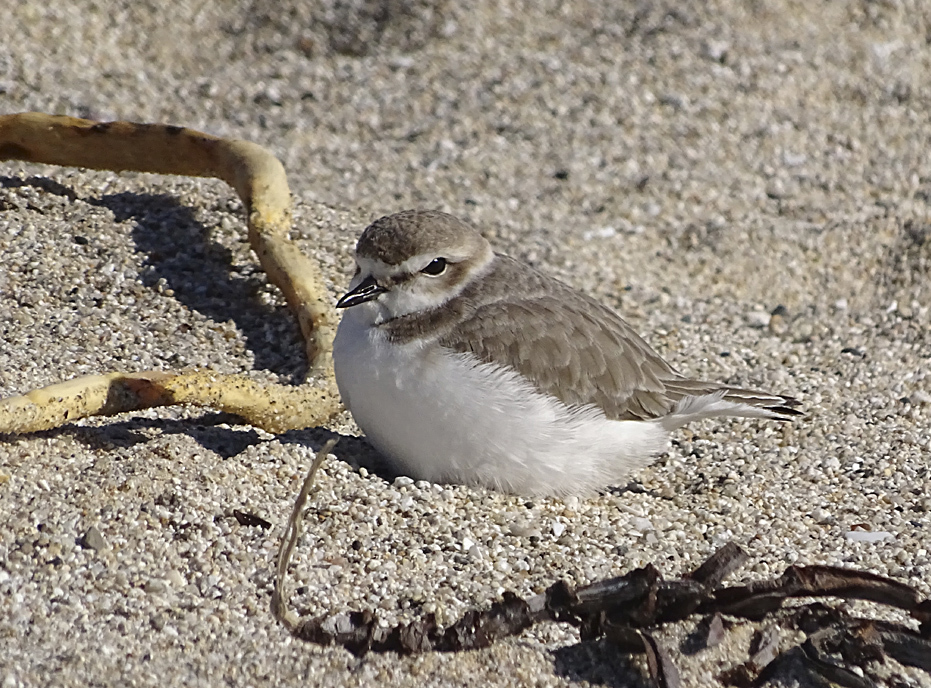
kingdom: Animalia
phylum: Chordata
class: Aves
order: Charadriiformes
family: Charadriidae
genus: Anarhynchus
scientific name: Anarhynchus
